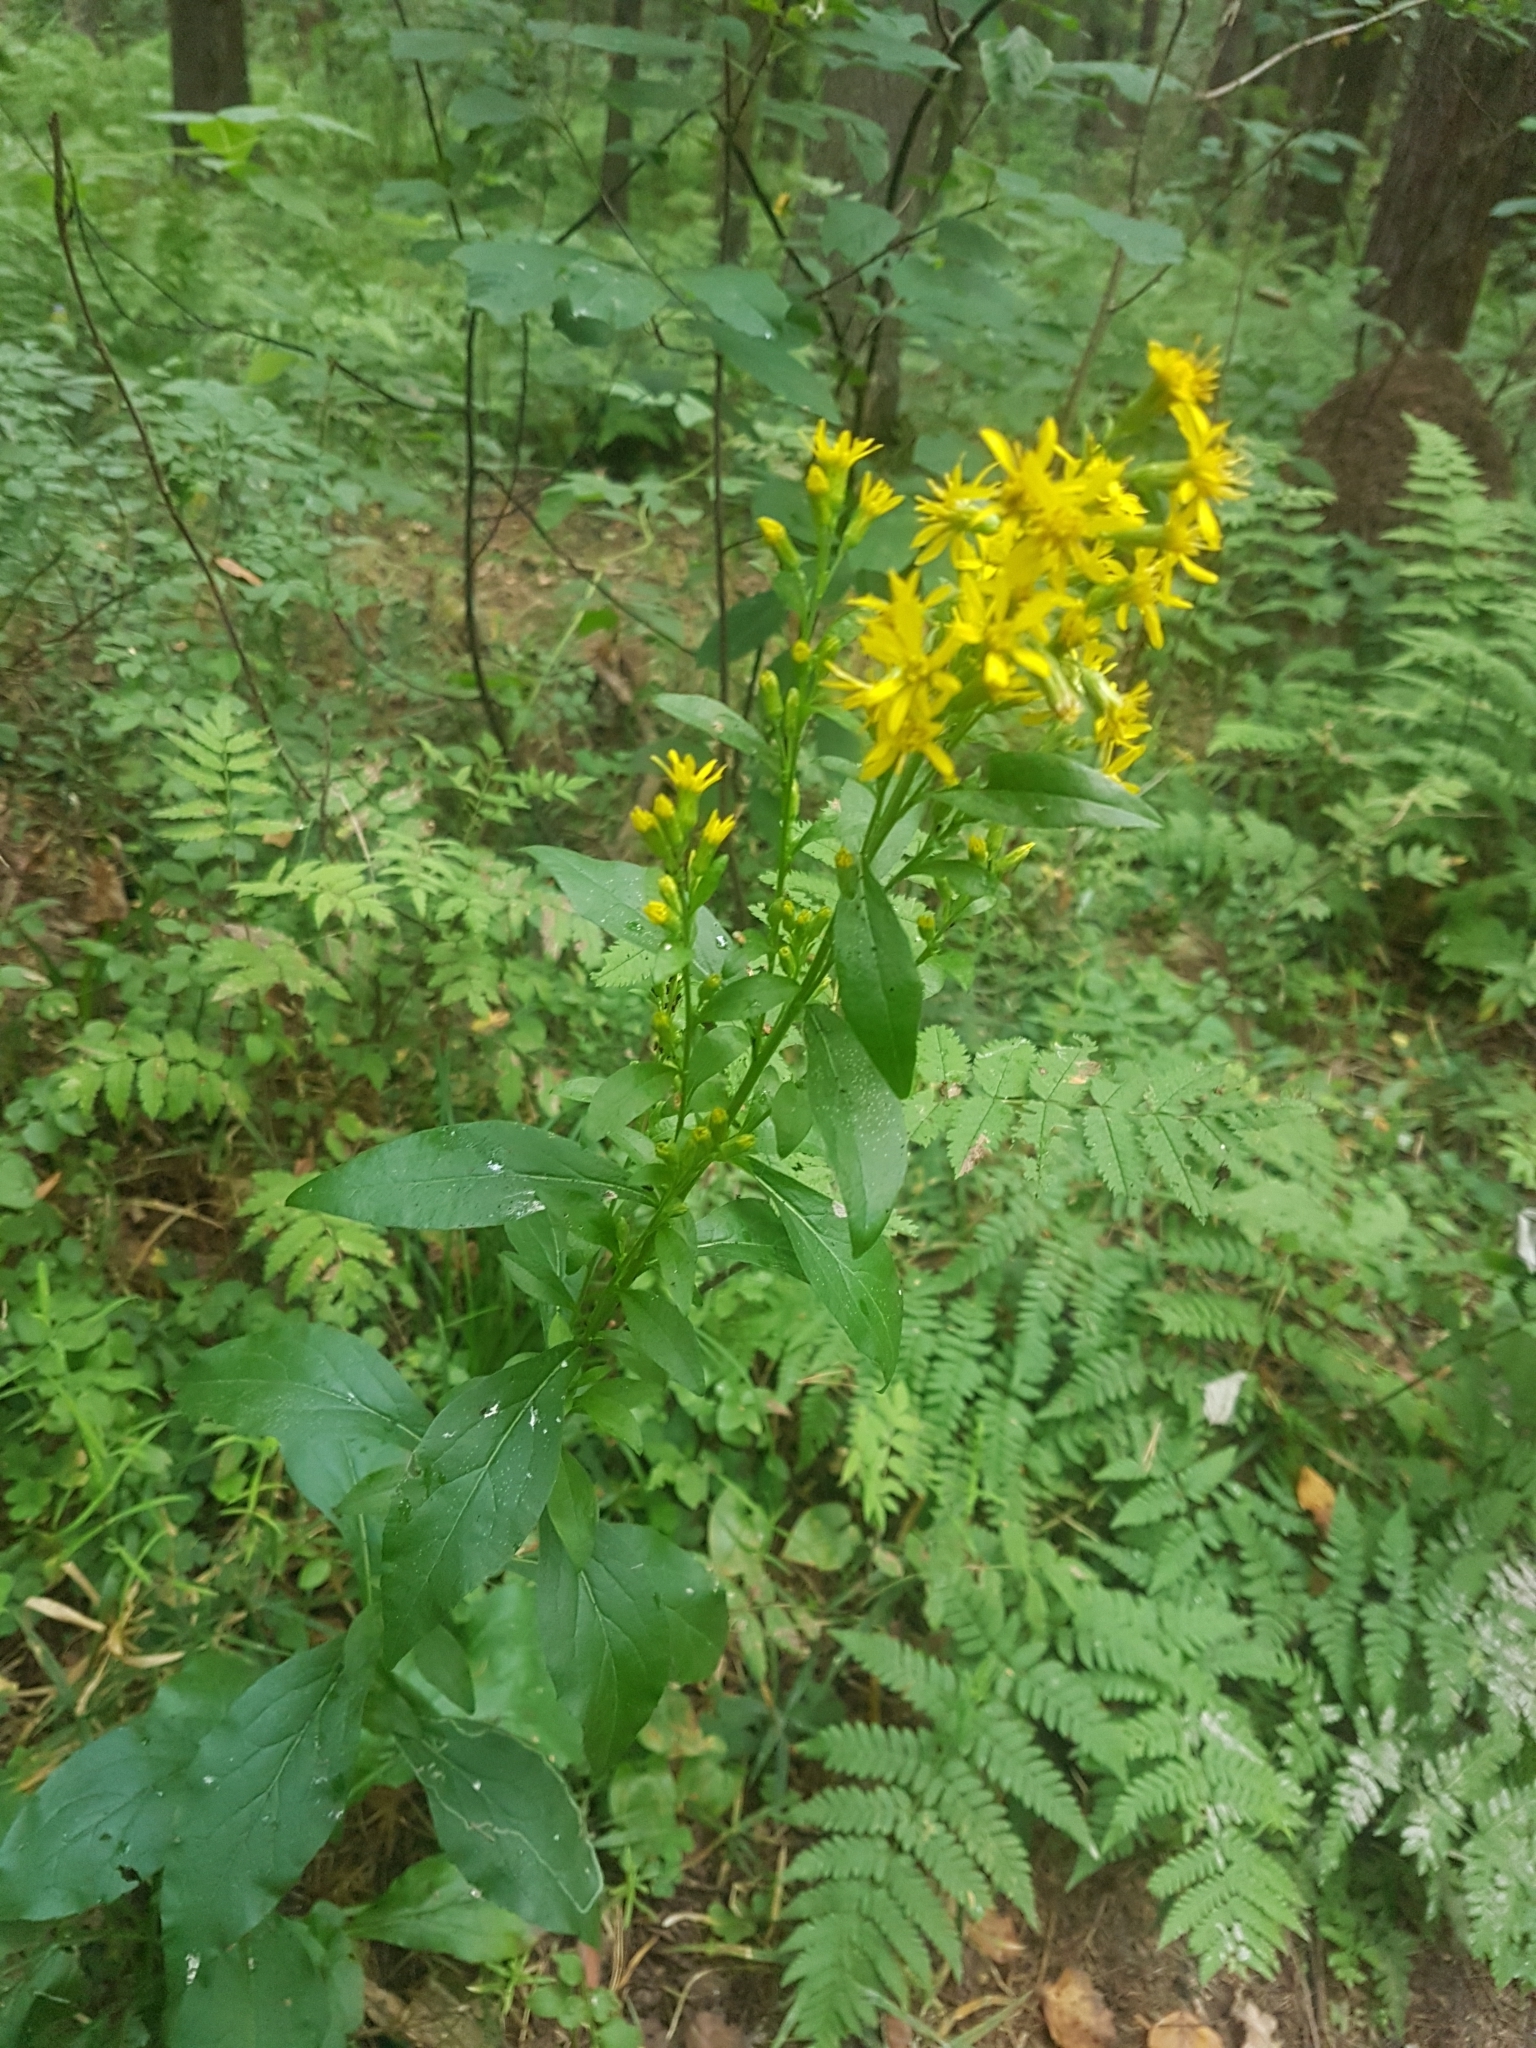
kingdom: Plantae
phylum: Tracheophyta
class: Magnoliopsida
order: Asterales
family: Asteraceae
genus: Solidago
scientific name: Solidago virgaurea
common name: Goldenrod
